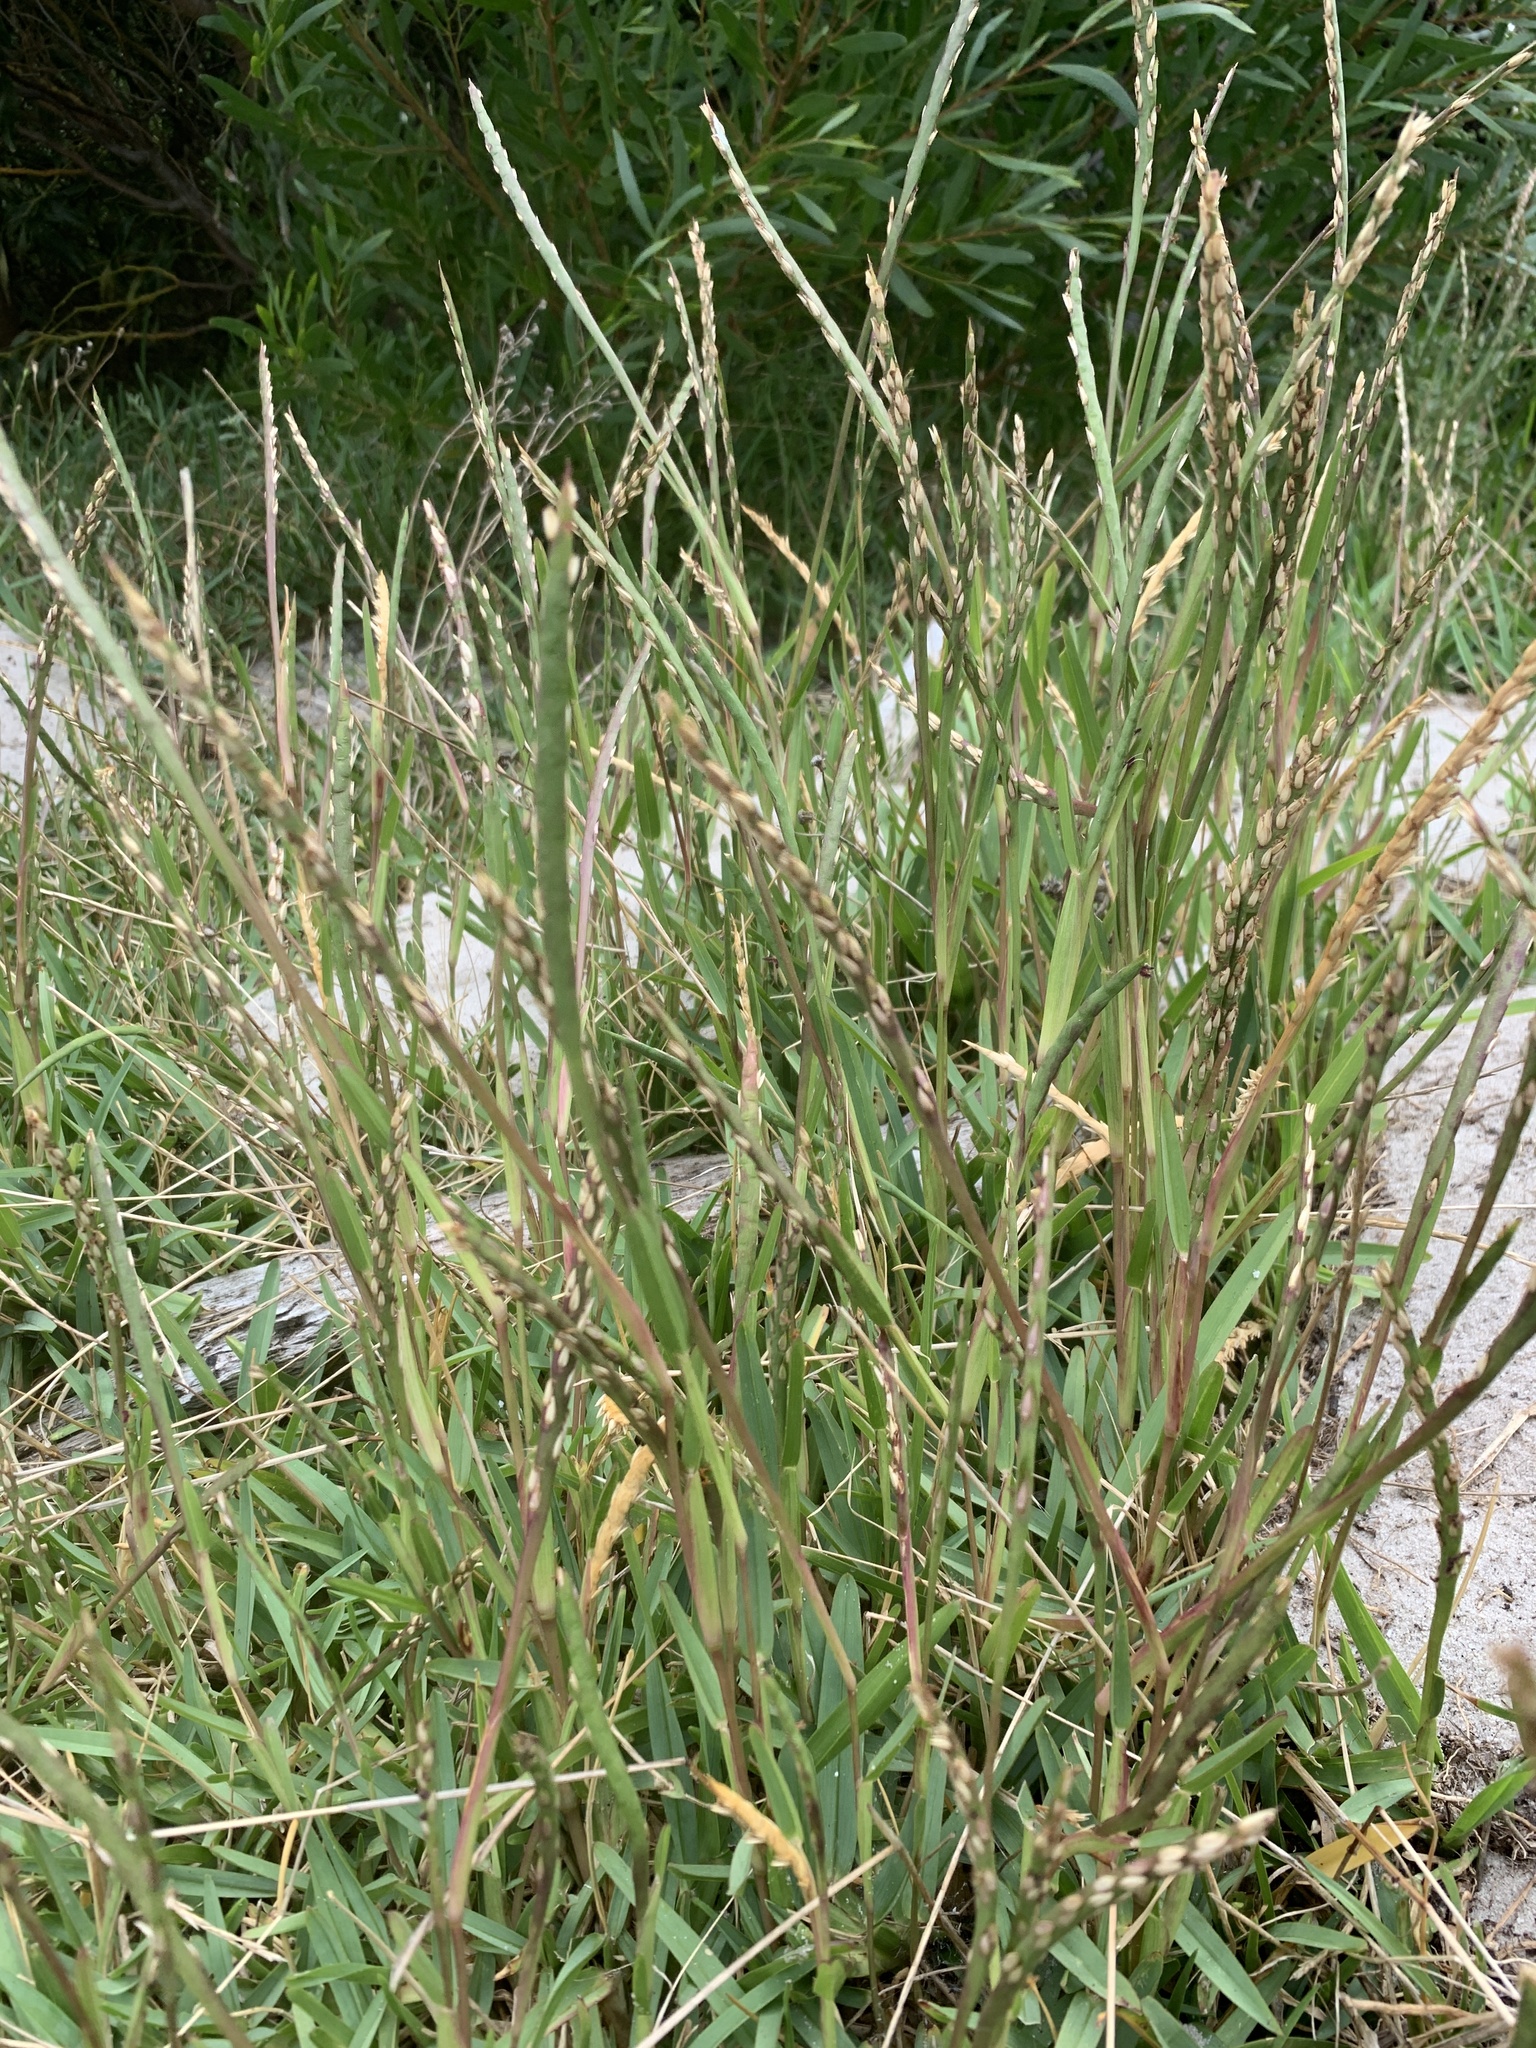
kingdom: Plantae
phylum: Tracheophyta
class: Liliopsida
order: Poales
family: Poaceae
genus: Stenotaphrum
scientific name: Stenotaphrum secundatum
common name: St. augustine grass
